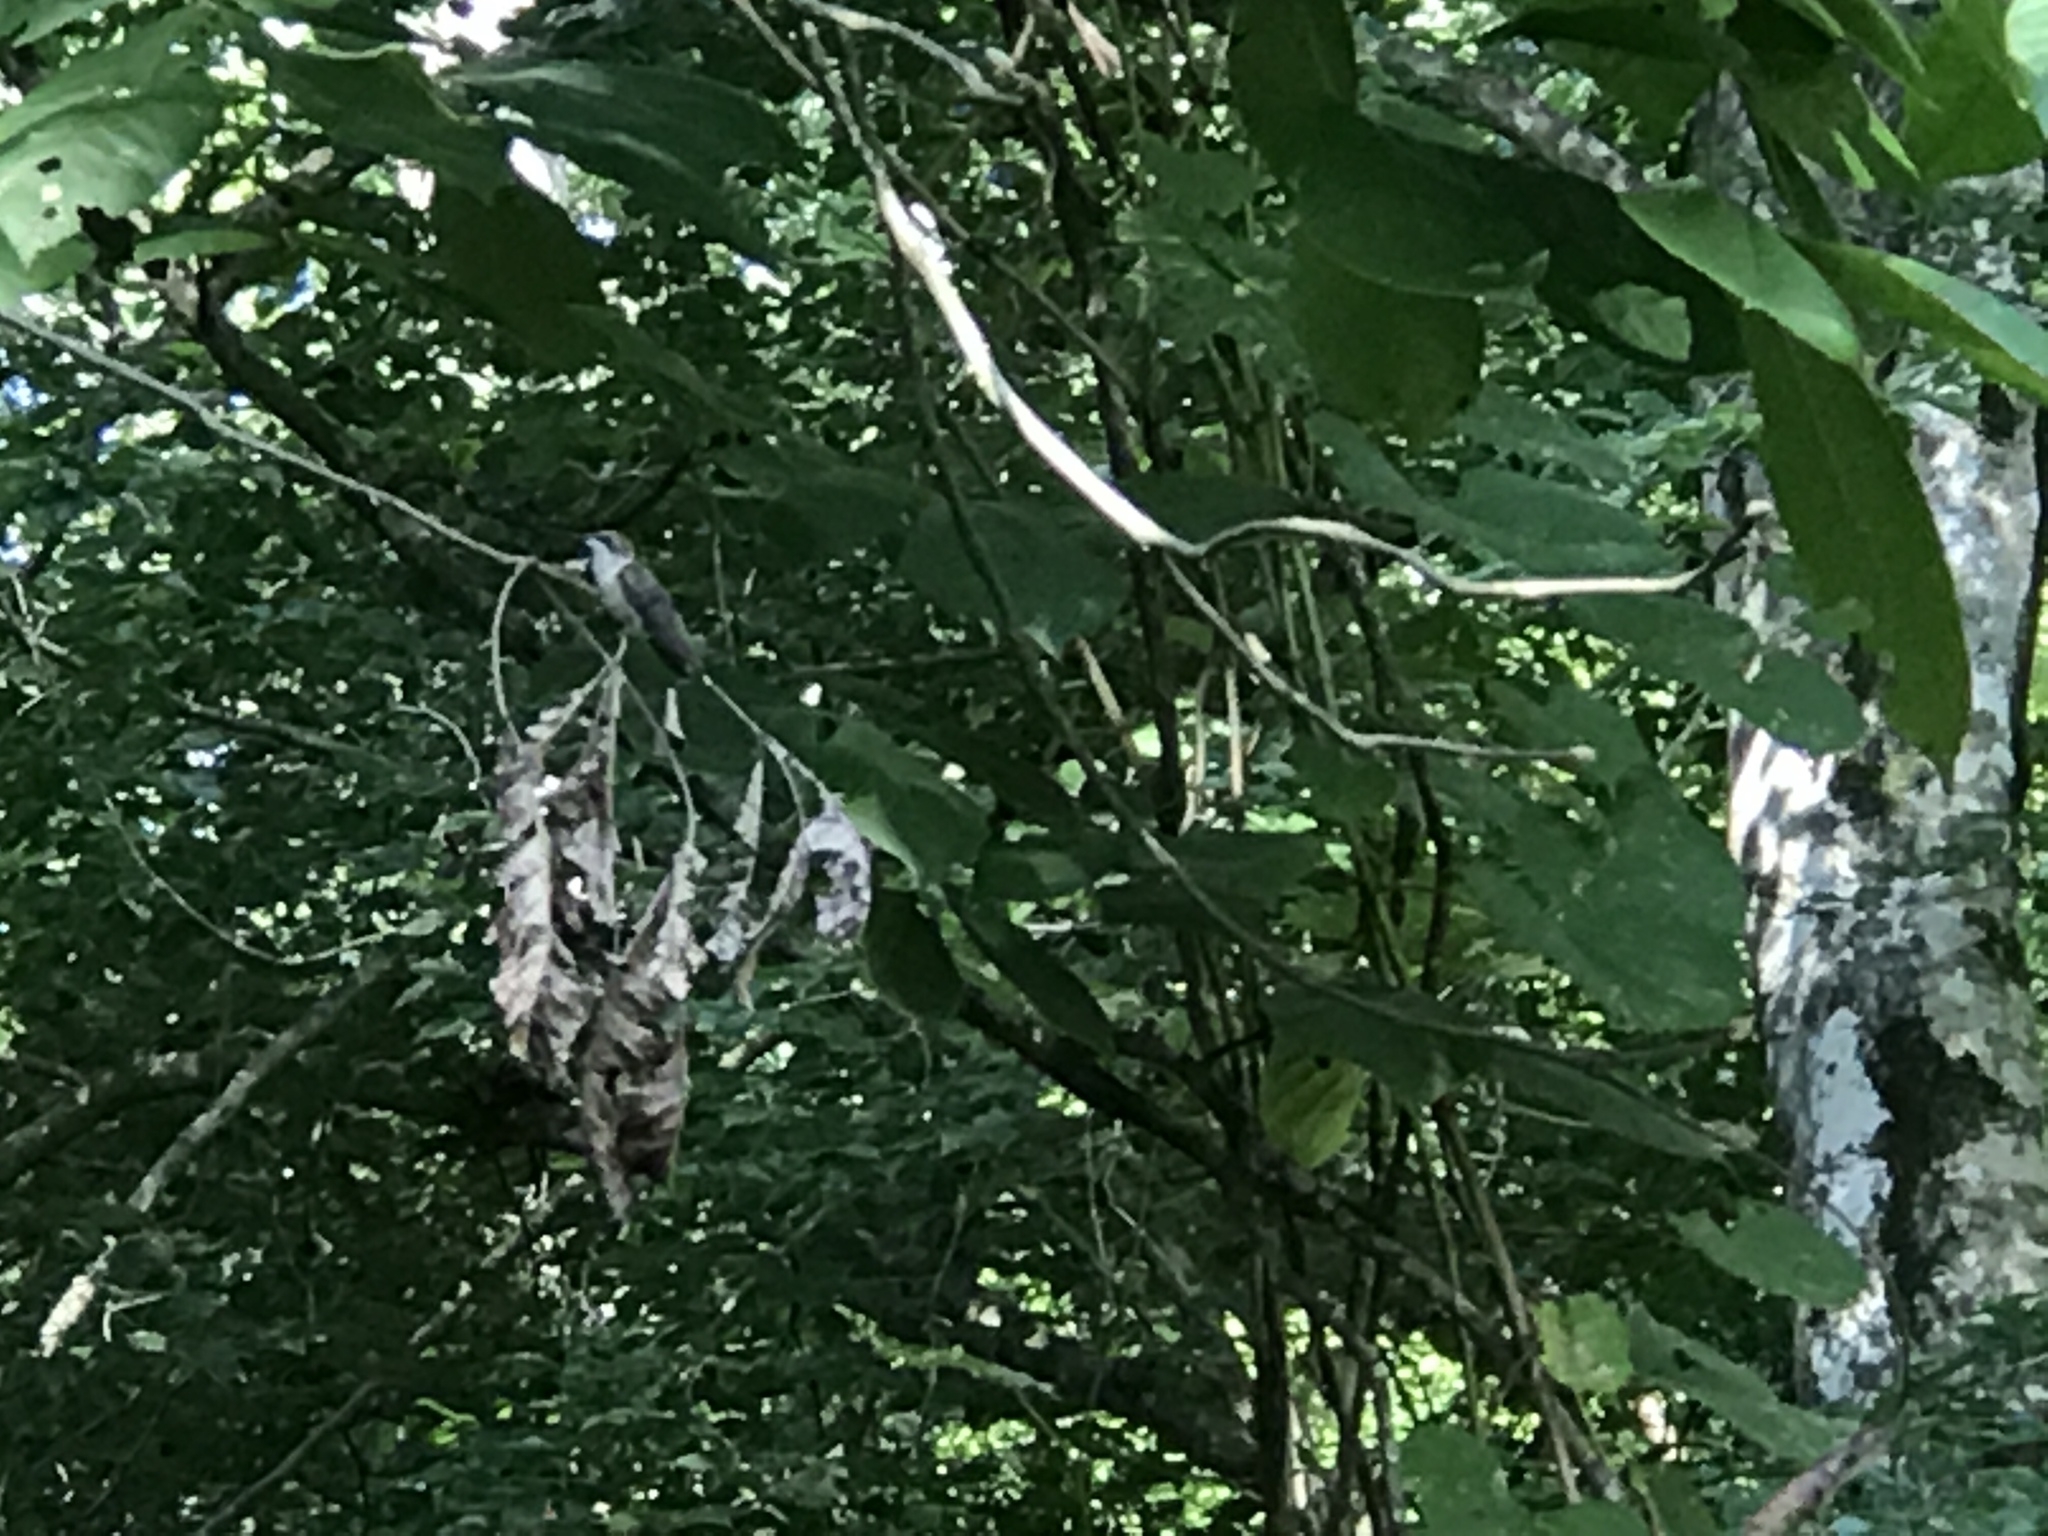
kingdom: Animalia
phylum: Chordata
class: Aves
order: Apodiformes
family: Trochilidae
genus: Archilochus
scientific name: Archilochus colubris
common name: Ruby-throated hummingbird
